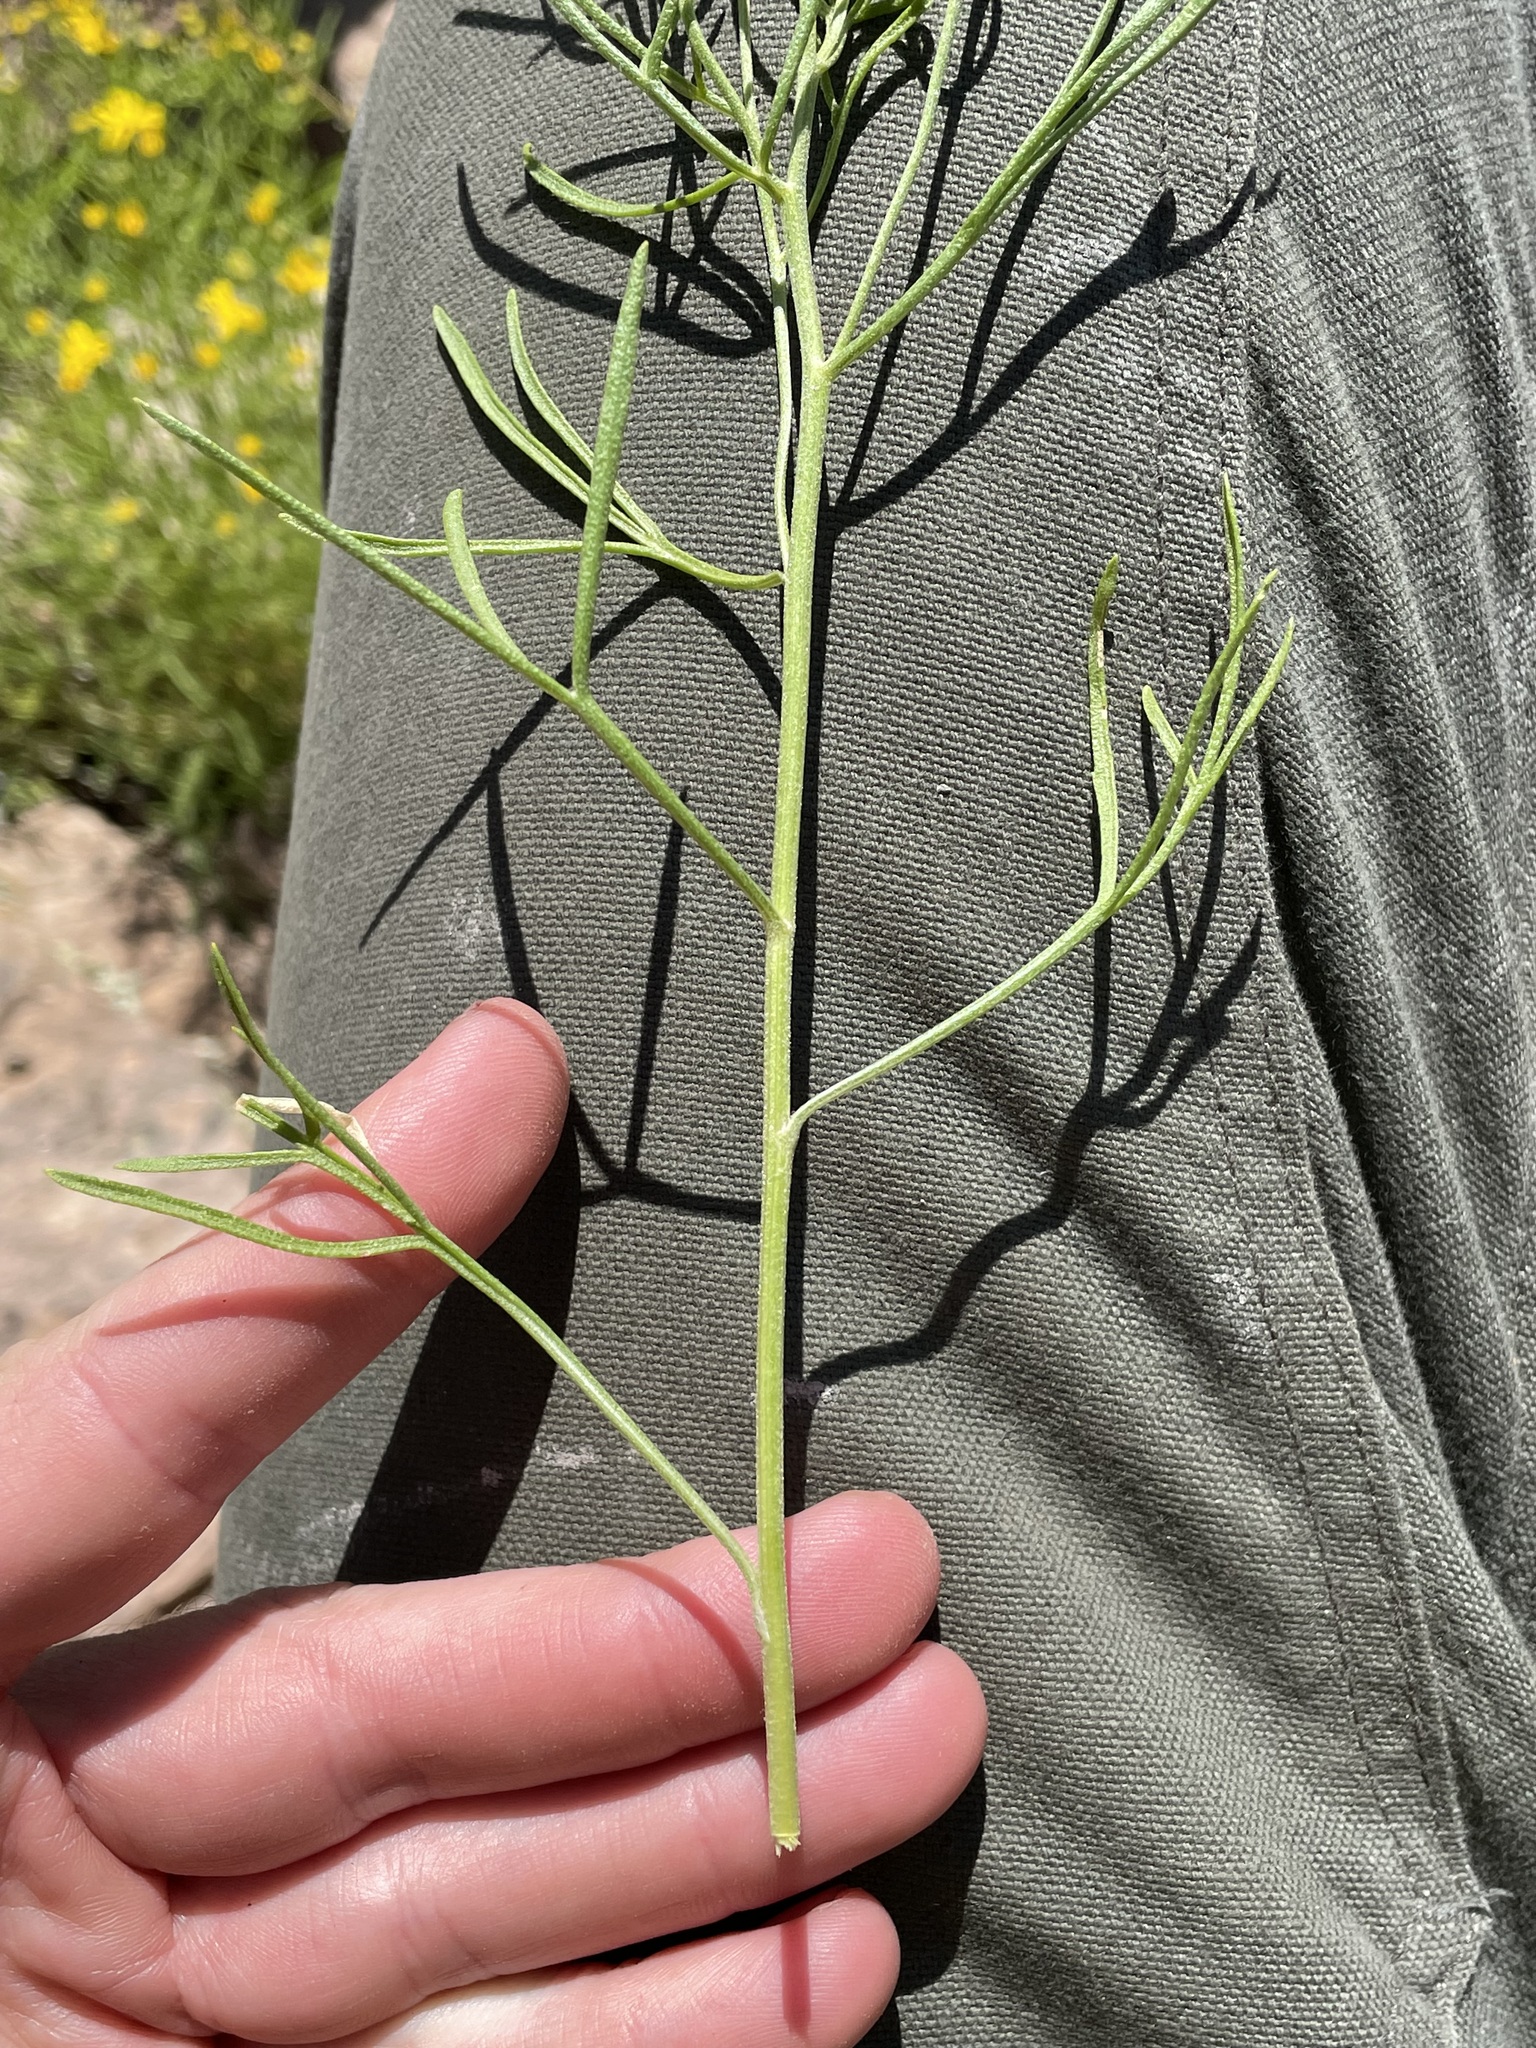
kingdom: Plantae
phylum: Tracheophyta
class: Magnoliopsida
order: Asterales
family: Asteraceae
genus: Hymenoxys
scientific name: Hymenoxys richardsonii
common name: Pingue rubberweed
